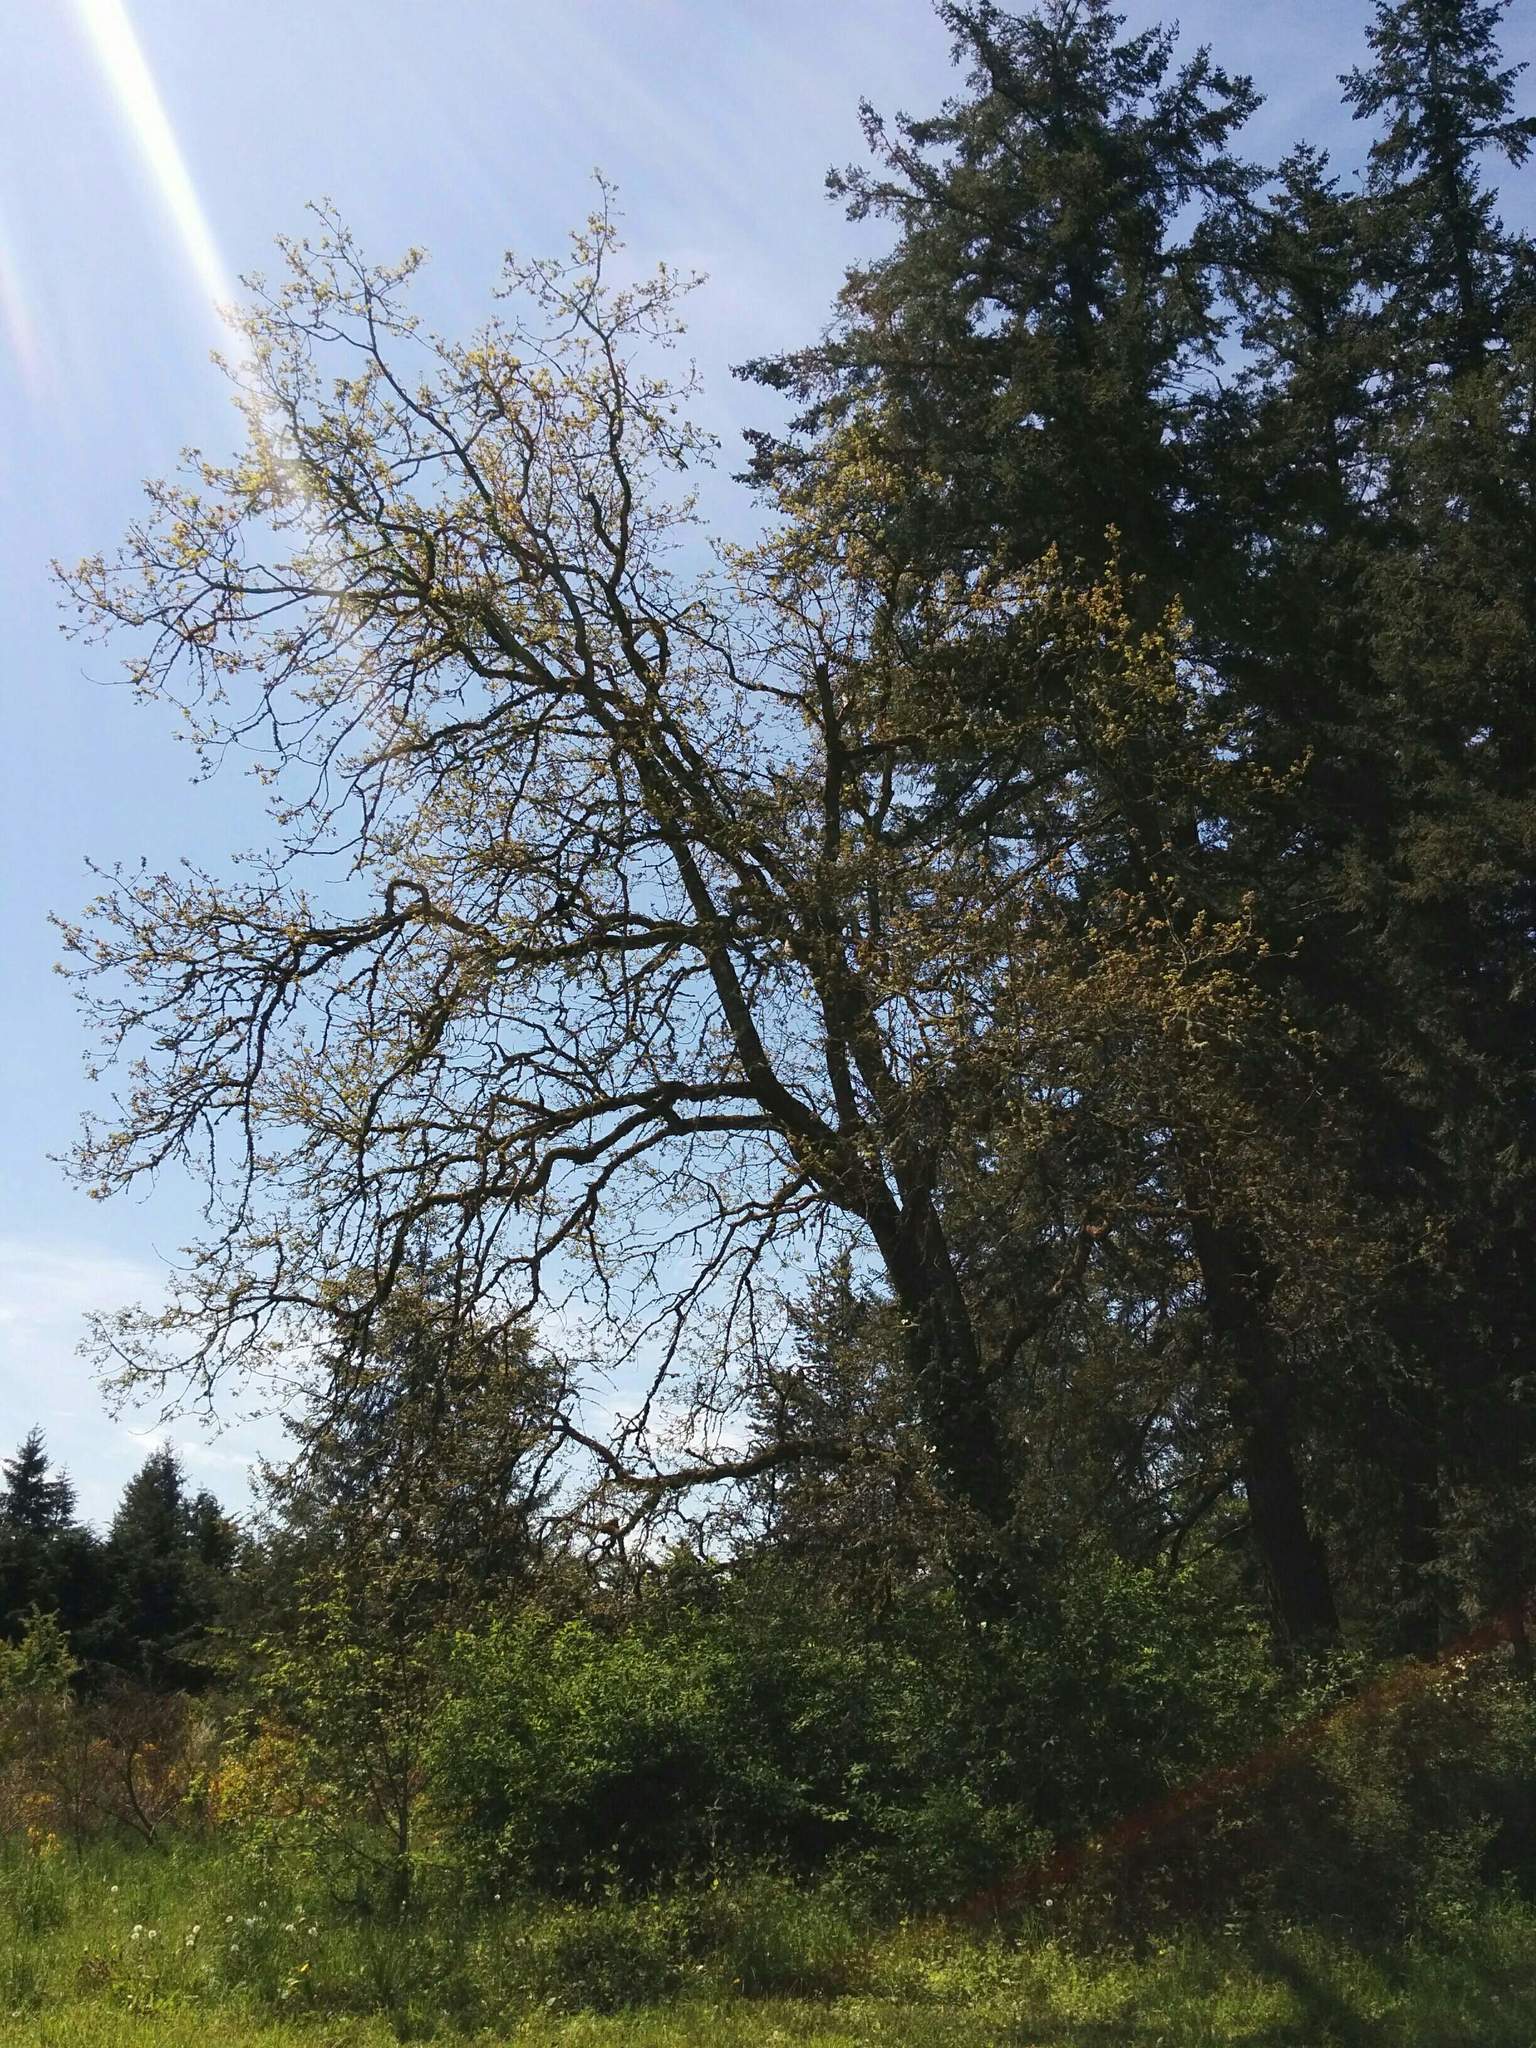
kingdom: Plantae
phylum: Tracheophyta
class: Magnoliopsida
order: Fagales
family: Fagaceae
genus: Quercus
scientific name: Quercus garryana
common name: Garry oak
